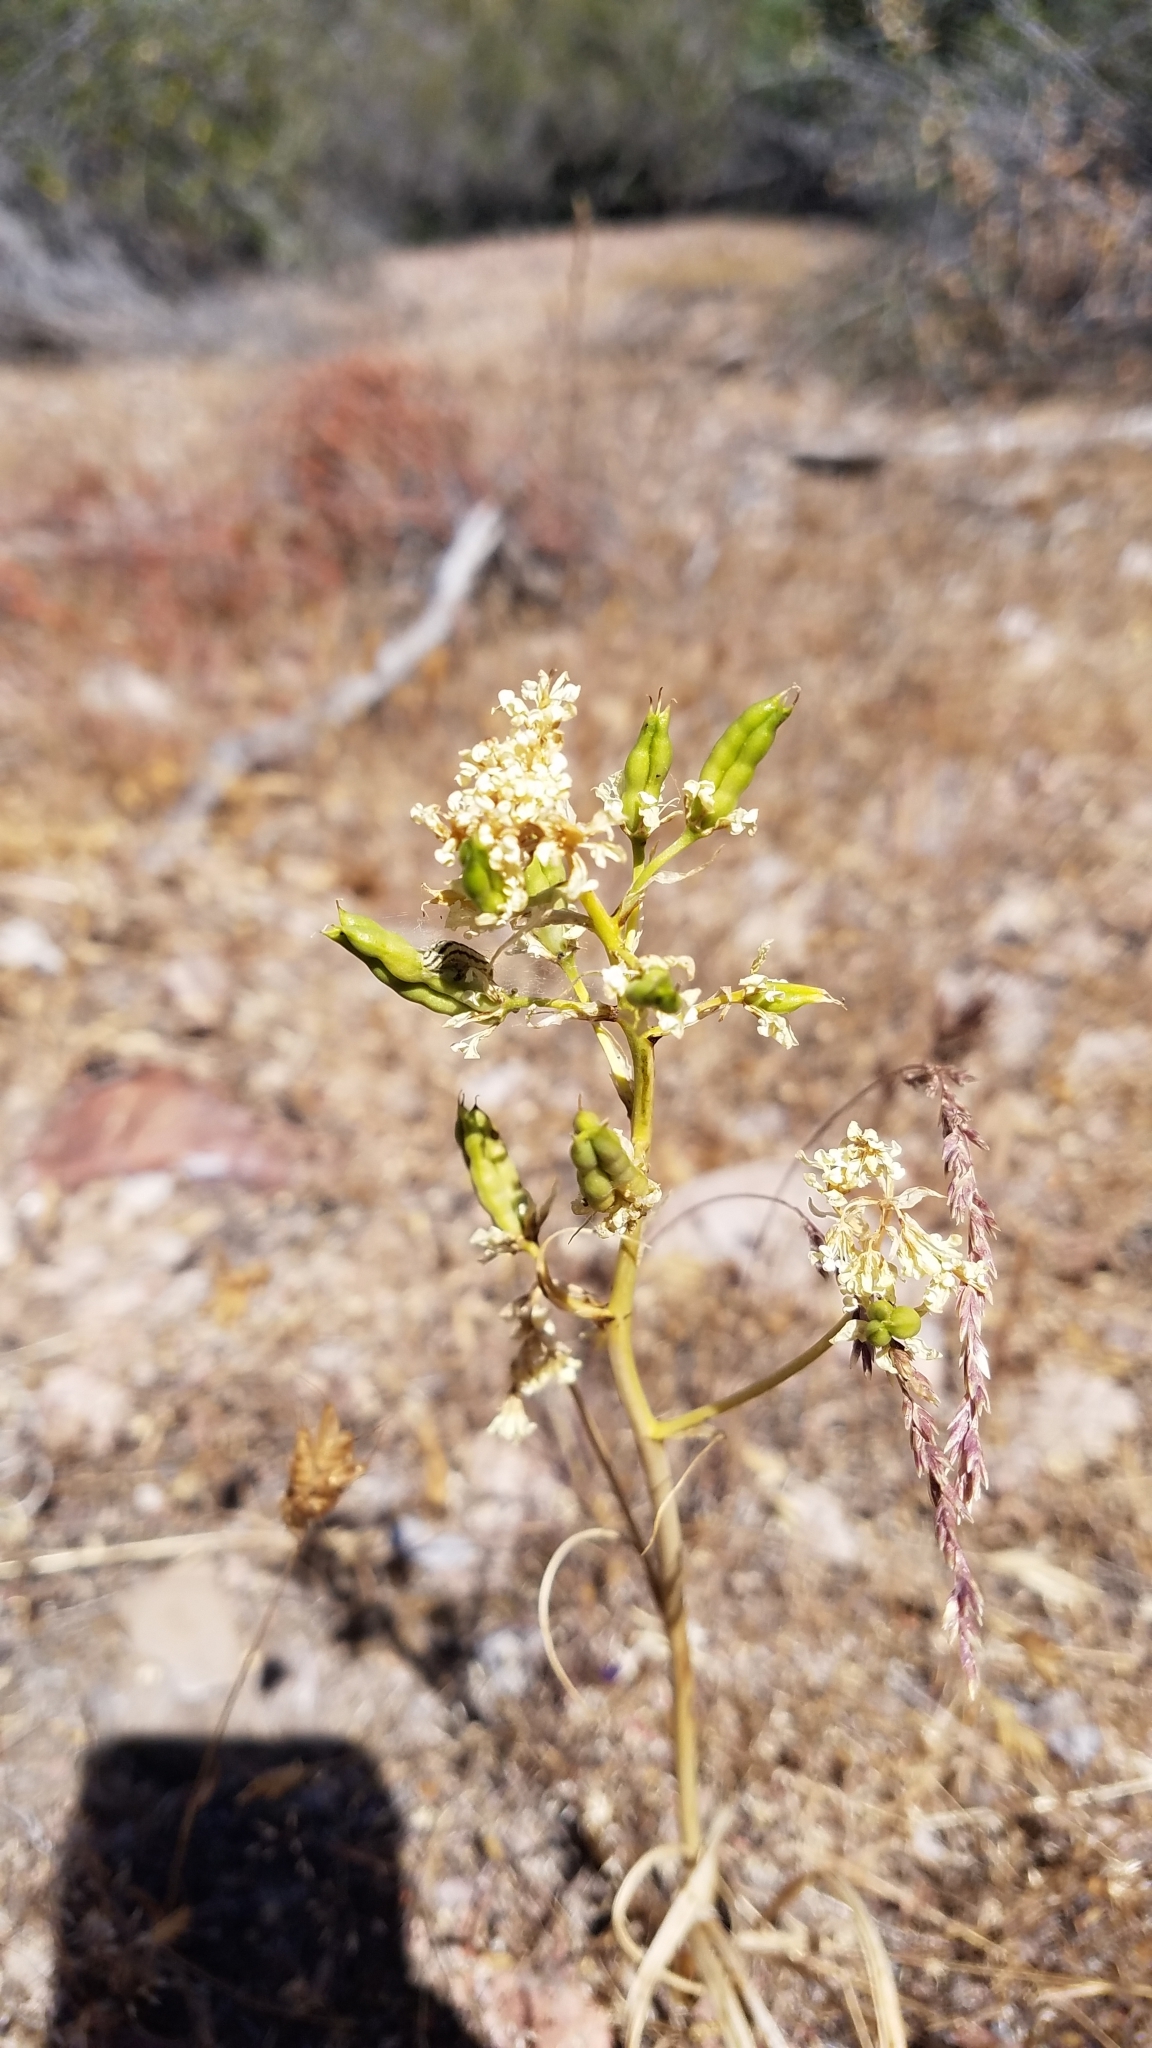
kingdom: Plantae
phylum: Tracheophyta
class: Liliopsida
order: Liliales
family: Melanthiaceae
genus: Toxicoscordion
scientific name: Toxicoscordion fremontii
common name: Fremont's death camas
